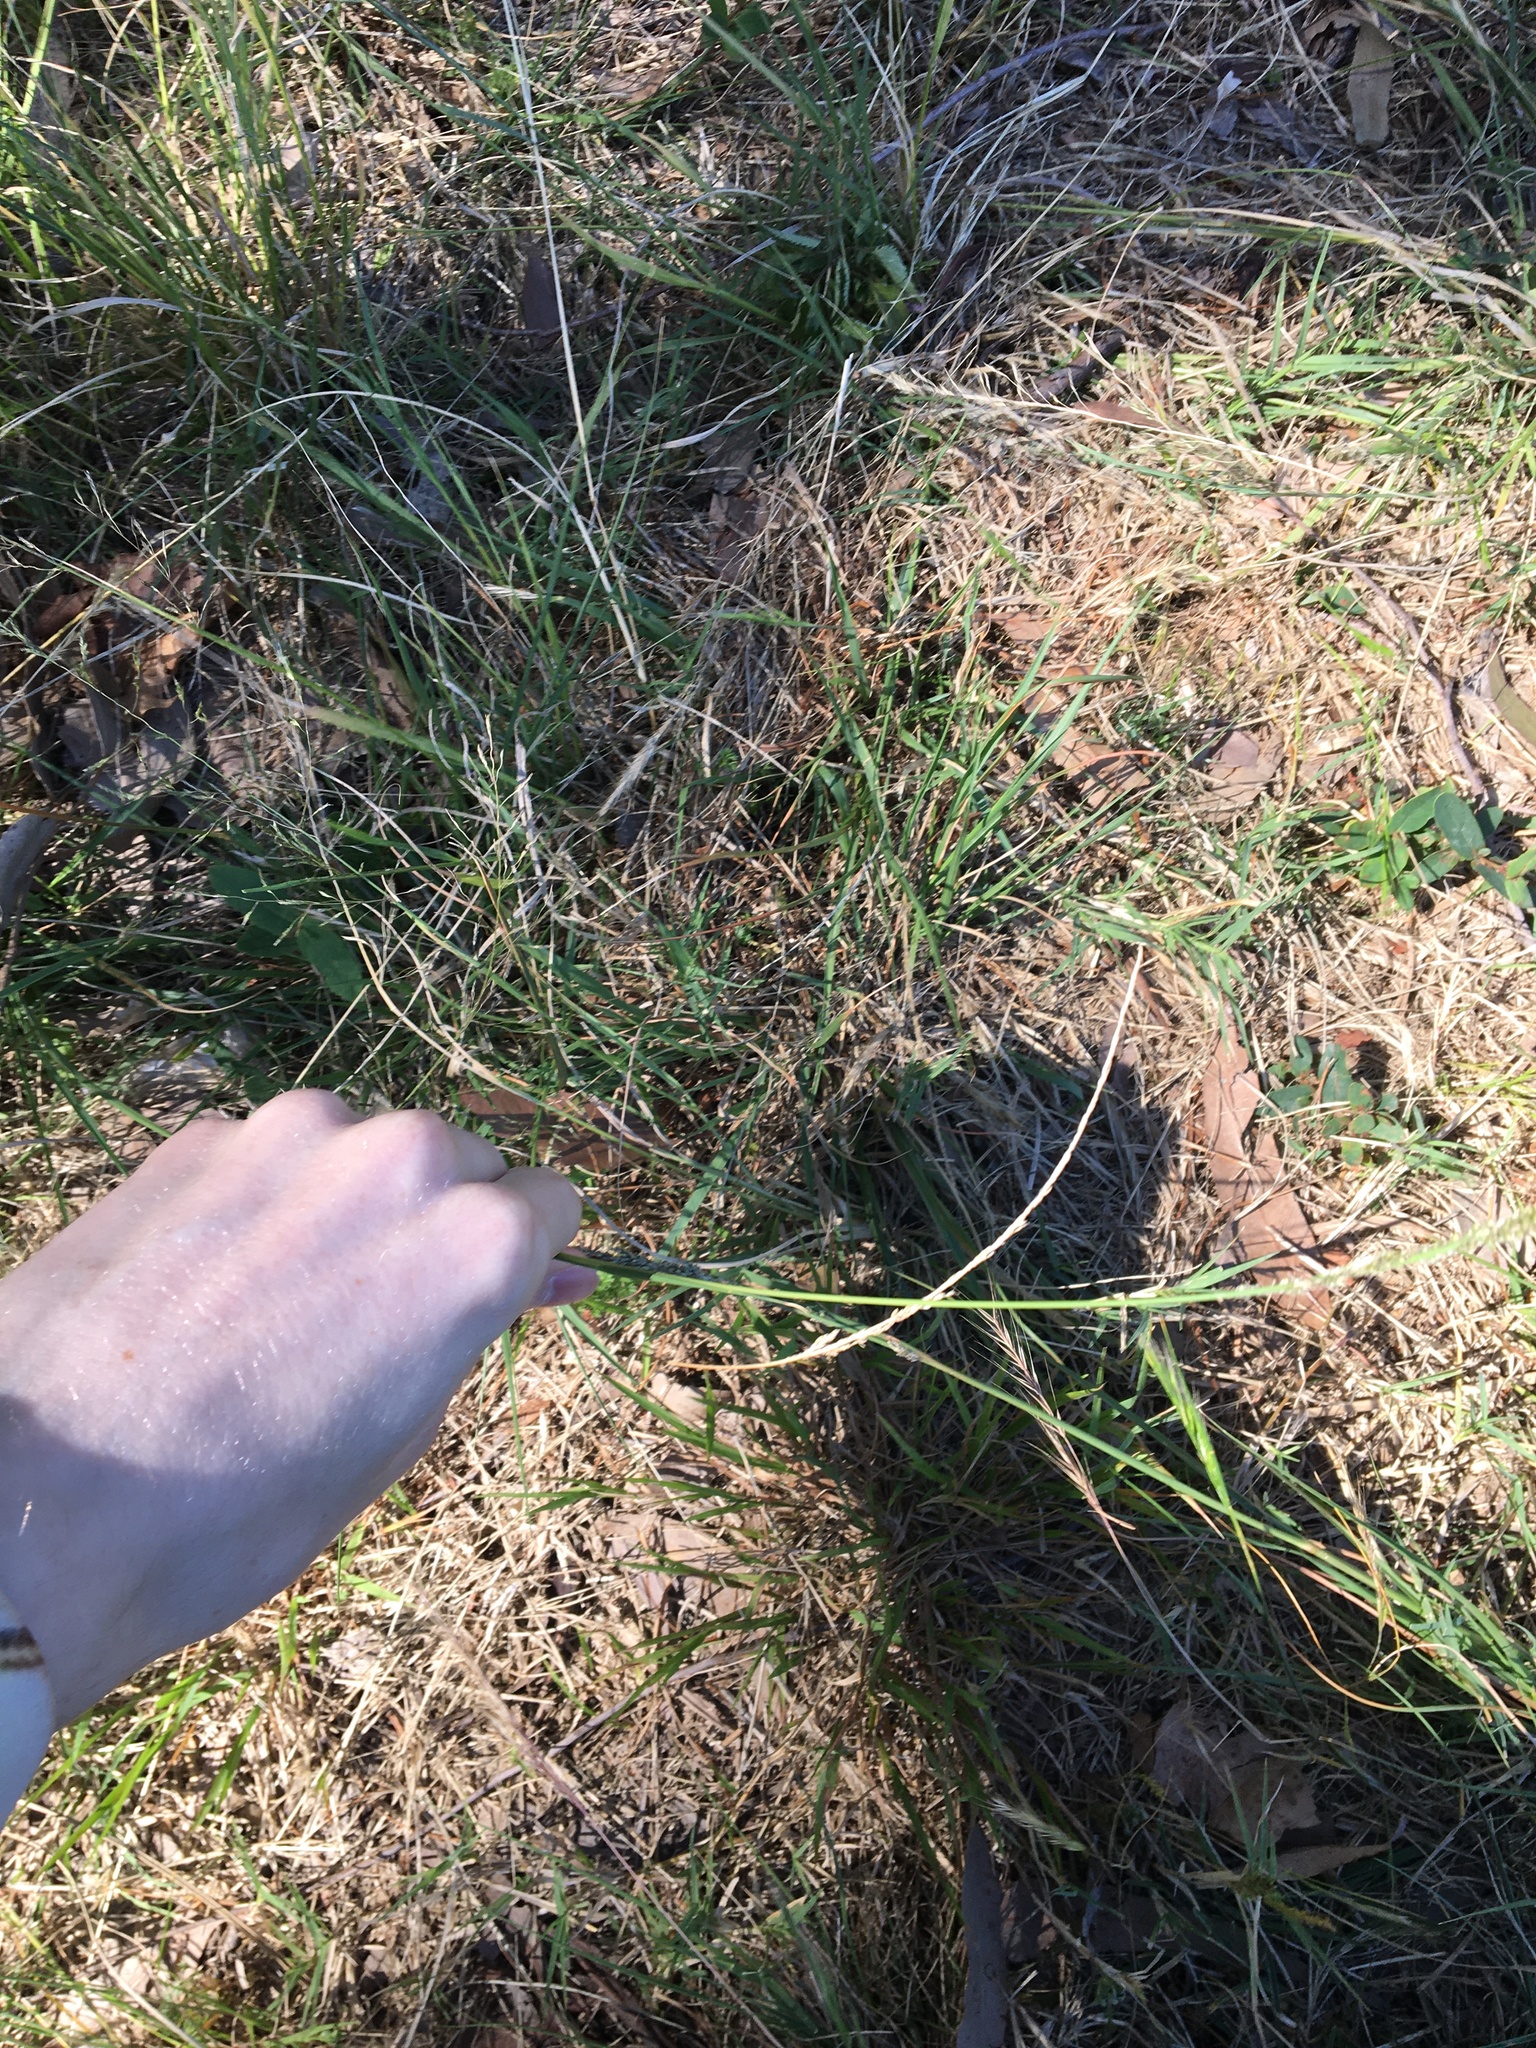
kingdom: Plantae
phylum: Tracheophyta
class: Liliopsida
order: Poales
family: Poaceae
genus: Sporobolus
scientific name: Sporobolus africanus
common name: African dropseed
